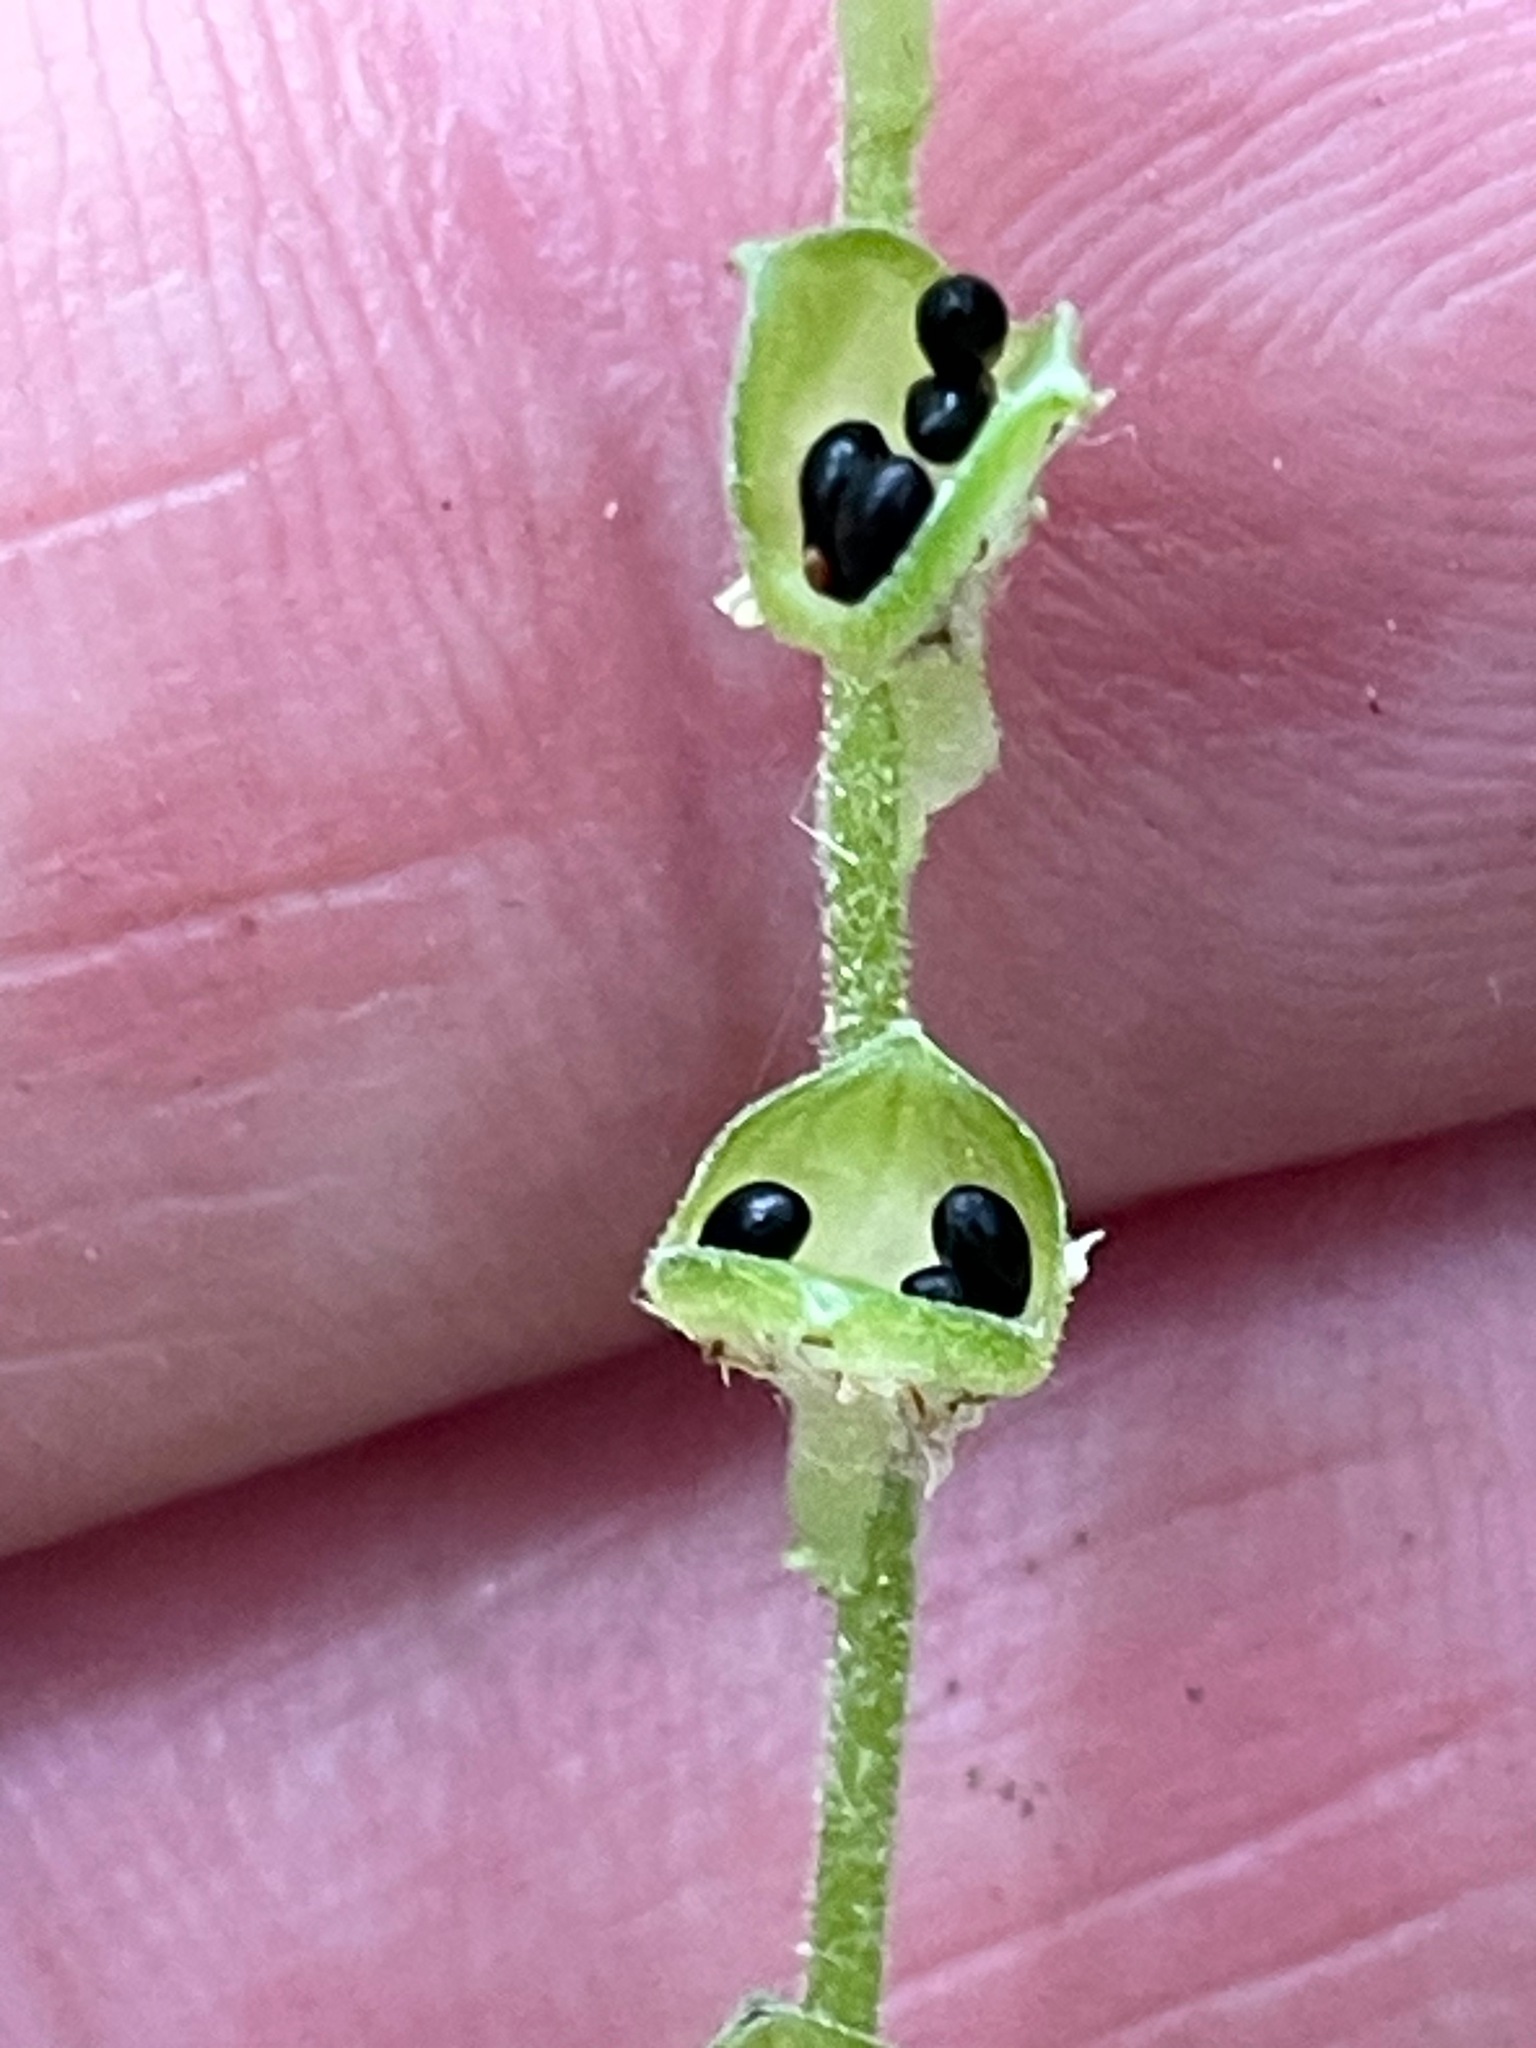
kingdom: Plantae
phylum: Tracheophyta
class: Magnoliopsida
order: Saxifragales
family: Saxifragaceae
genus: Mitella
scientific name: Mitella diphylla
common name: Coolwort
